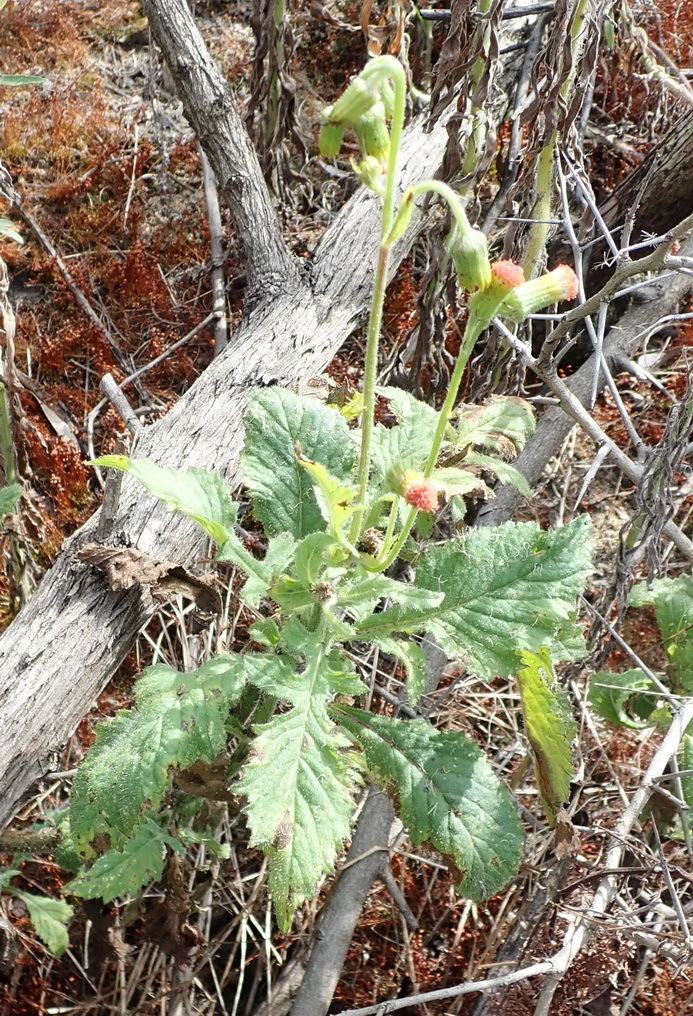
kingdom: Plantae
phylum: Tracheophyta
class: Magnoliopsida
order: Asterales
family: Asteraceae
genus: Crassocephalum
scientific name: Crassocephalum crepidioides
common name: Redflower ragleaf
